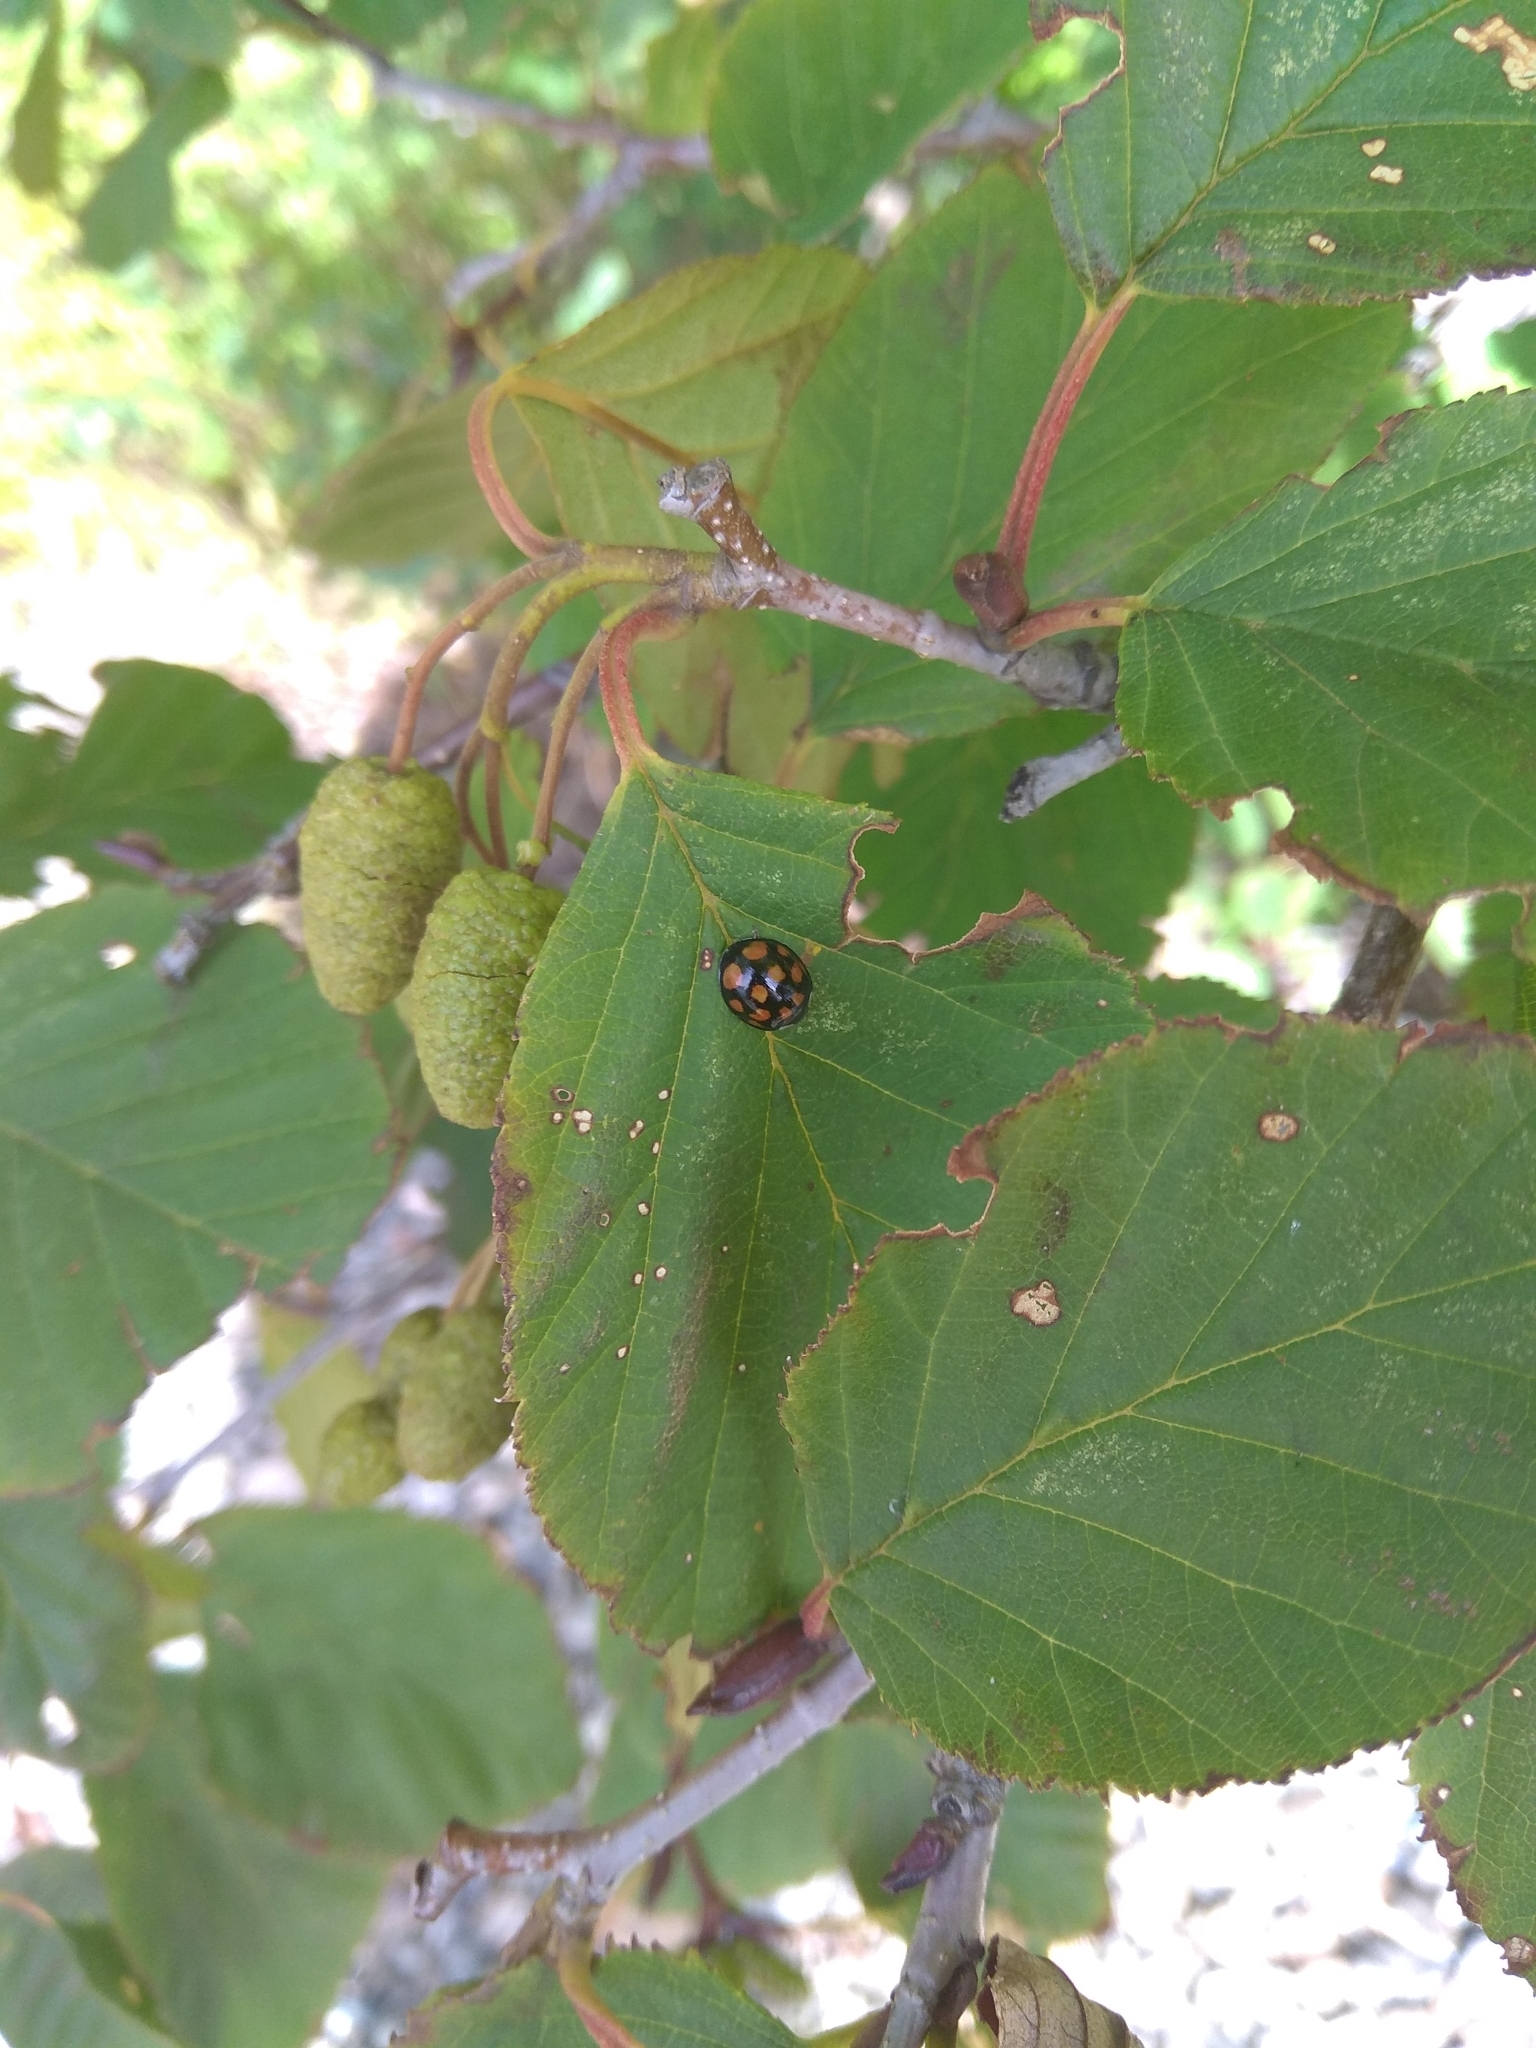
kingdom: Animalia
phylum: Arthropoda
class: Insecta
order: Coleoptera
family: Coccinellidae
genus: Harmonia
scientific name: Harmonia axyridis
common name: Harlequin ladybird
